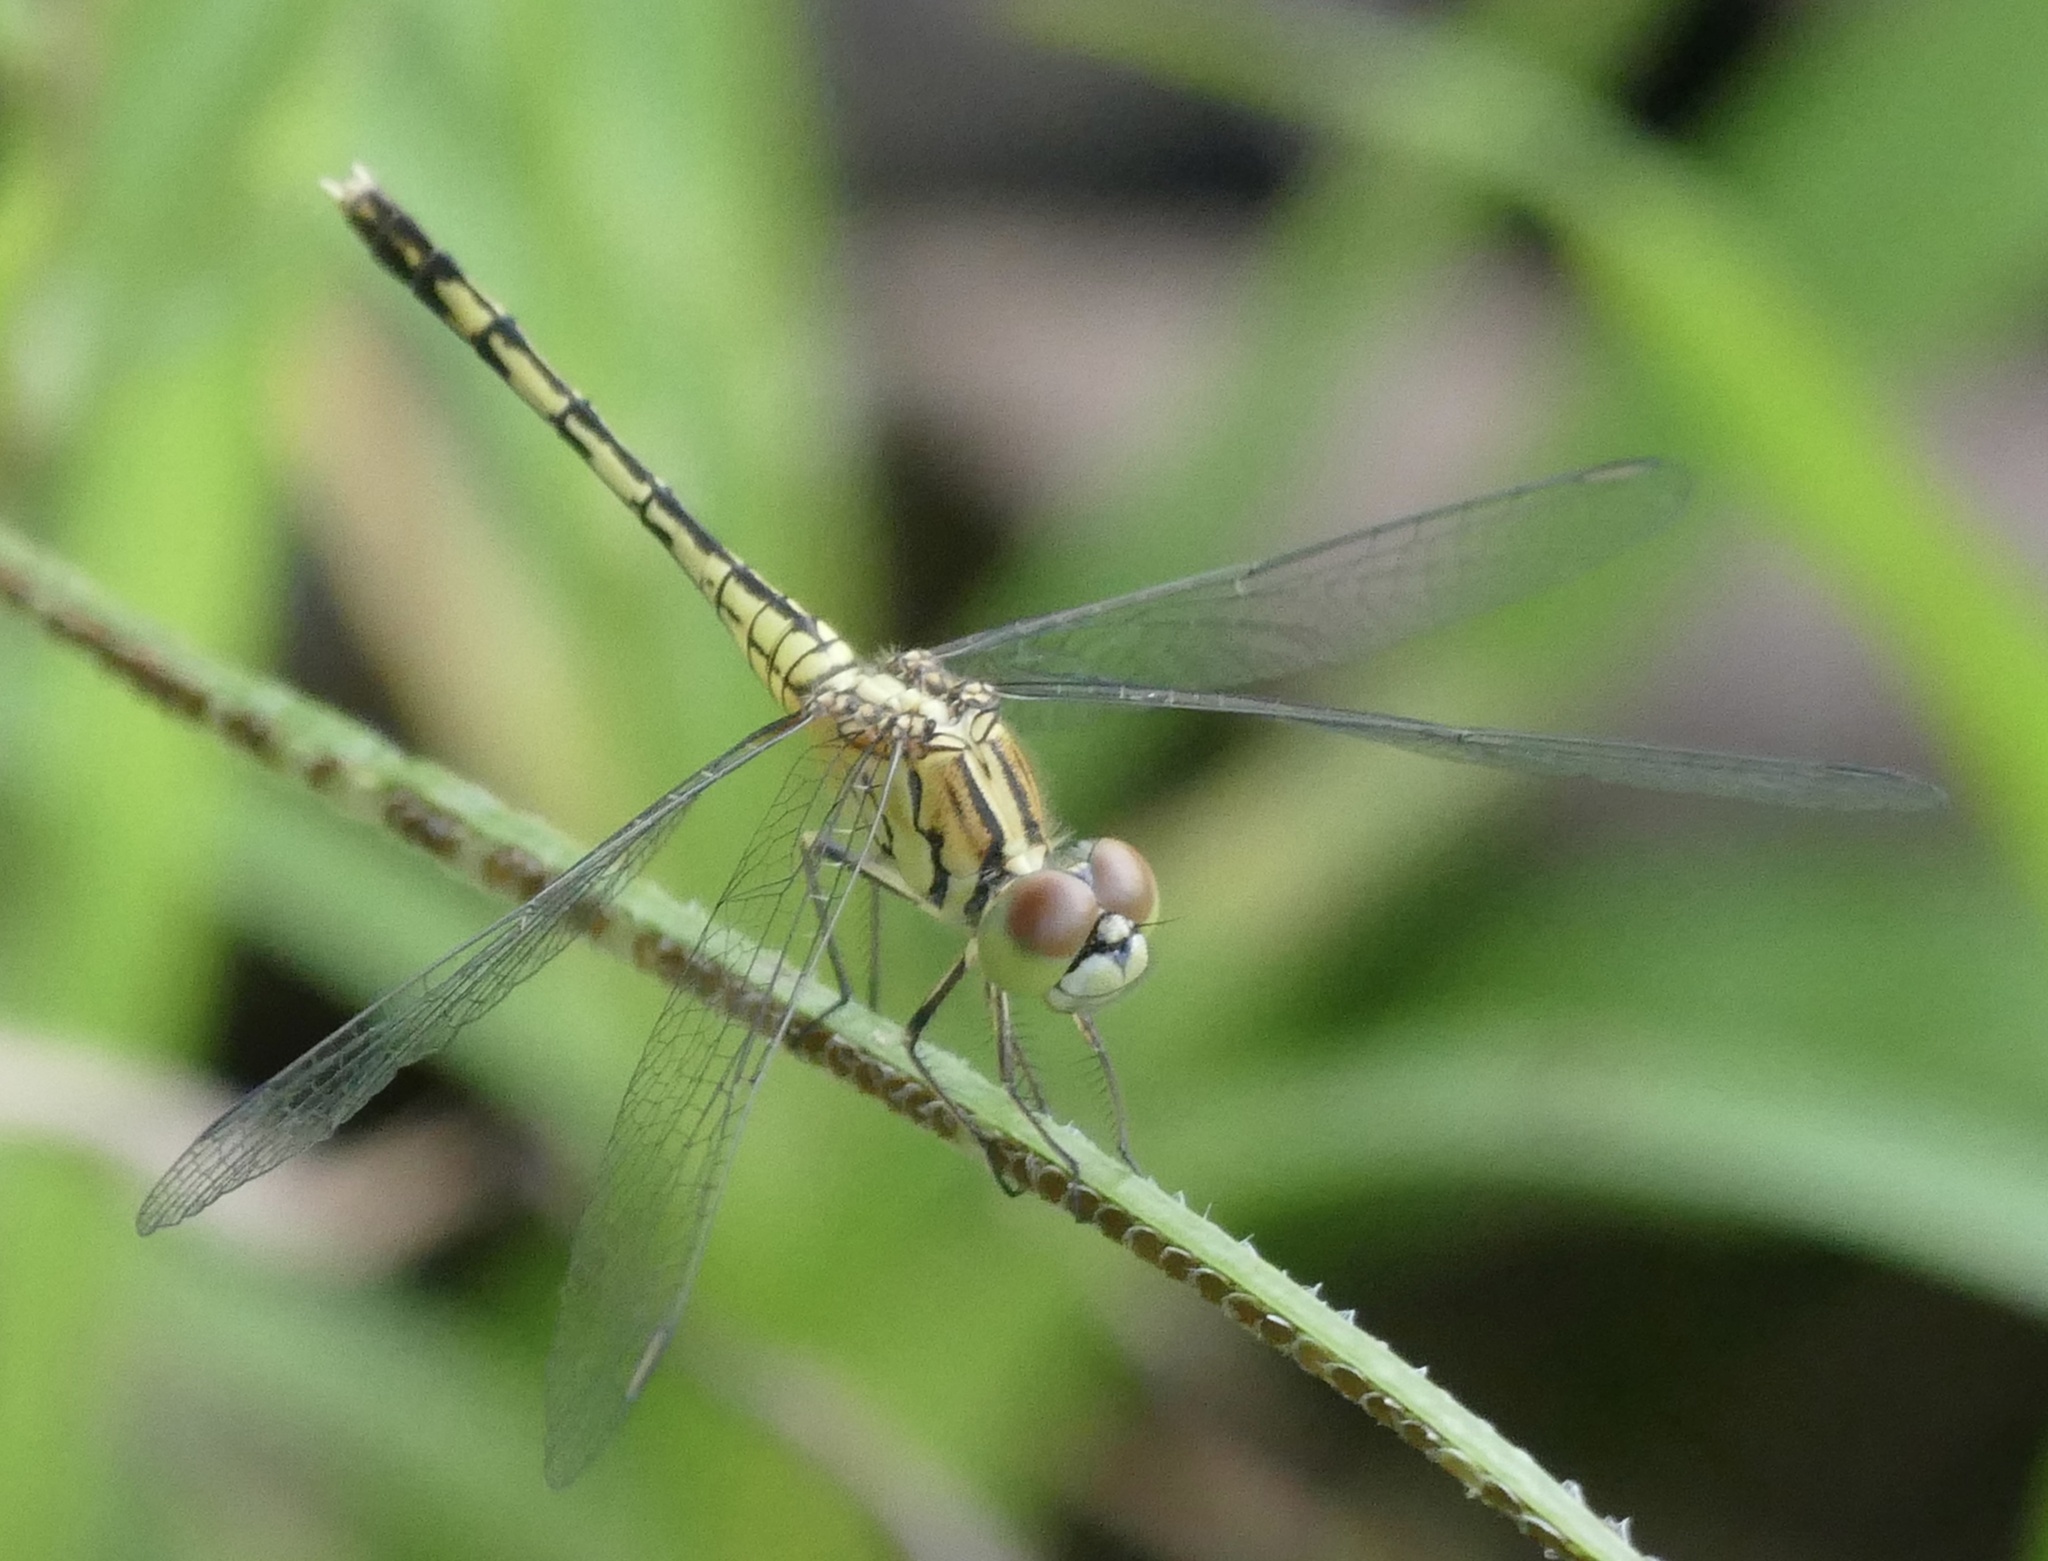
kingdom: Animalia
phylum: Arthropoda
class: Insecta
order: Odonata
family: Libellulidae
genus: Diplacodes
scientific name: Diplacodes trivialis
